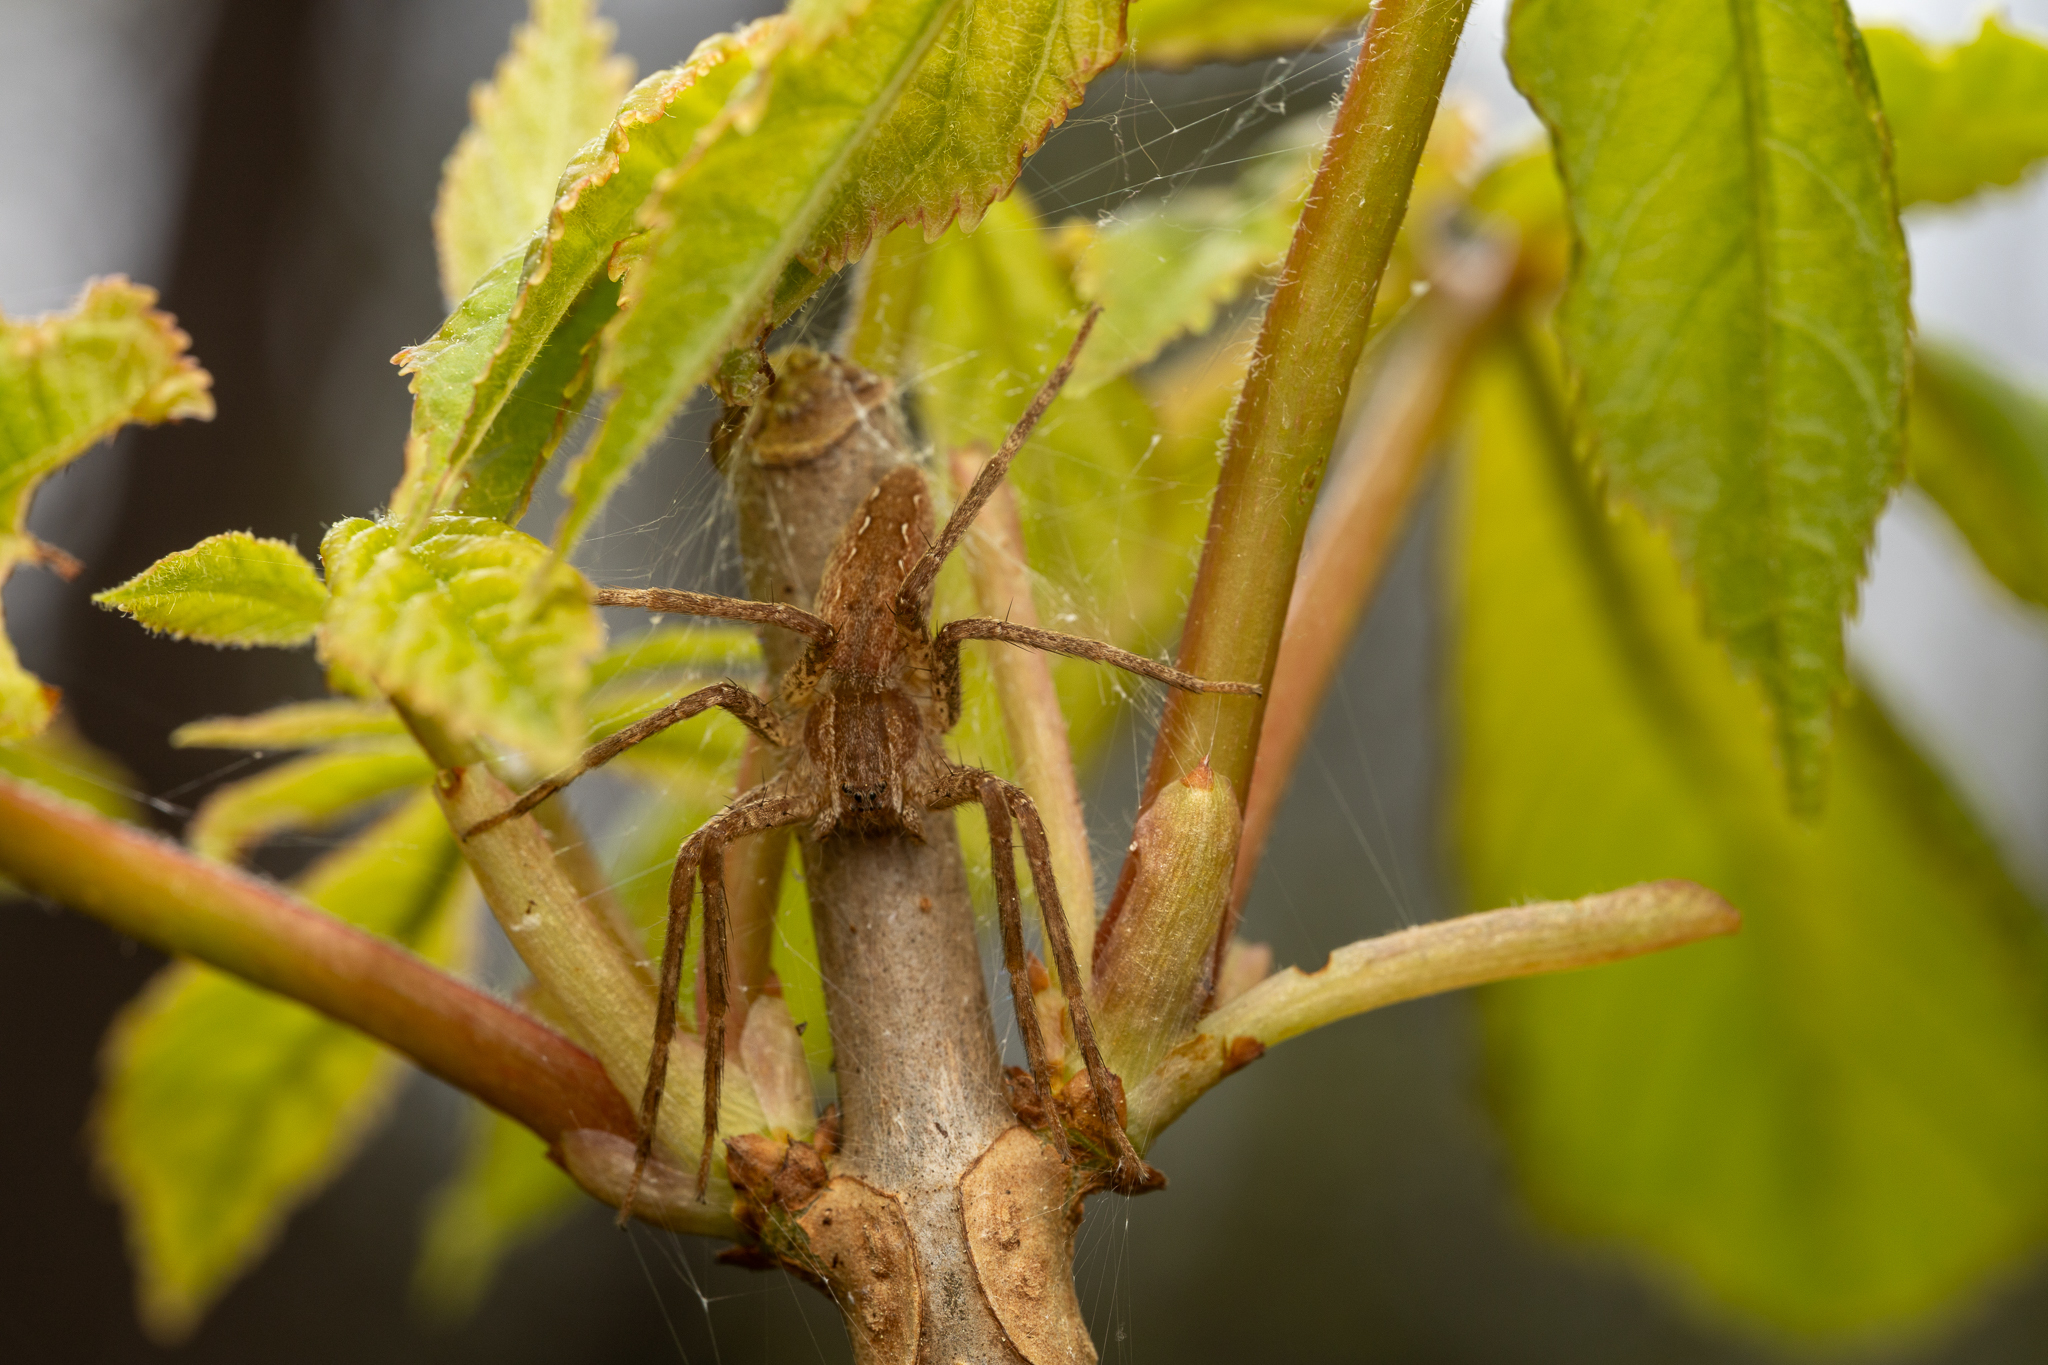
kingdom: Animalia
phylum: Arthropoda
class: Arachnida
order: Araneae
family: Pisauridae
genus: Pisaurina
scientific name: Pisaurina mira
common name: American nursery web spider
